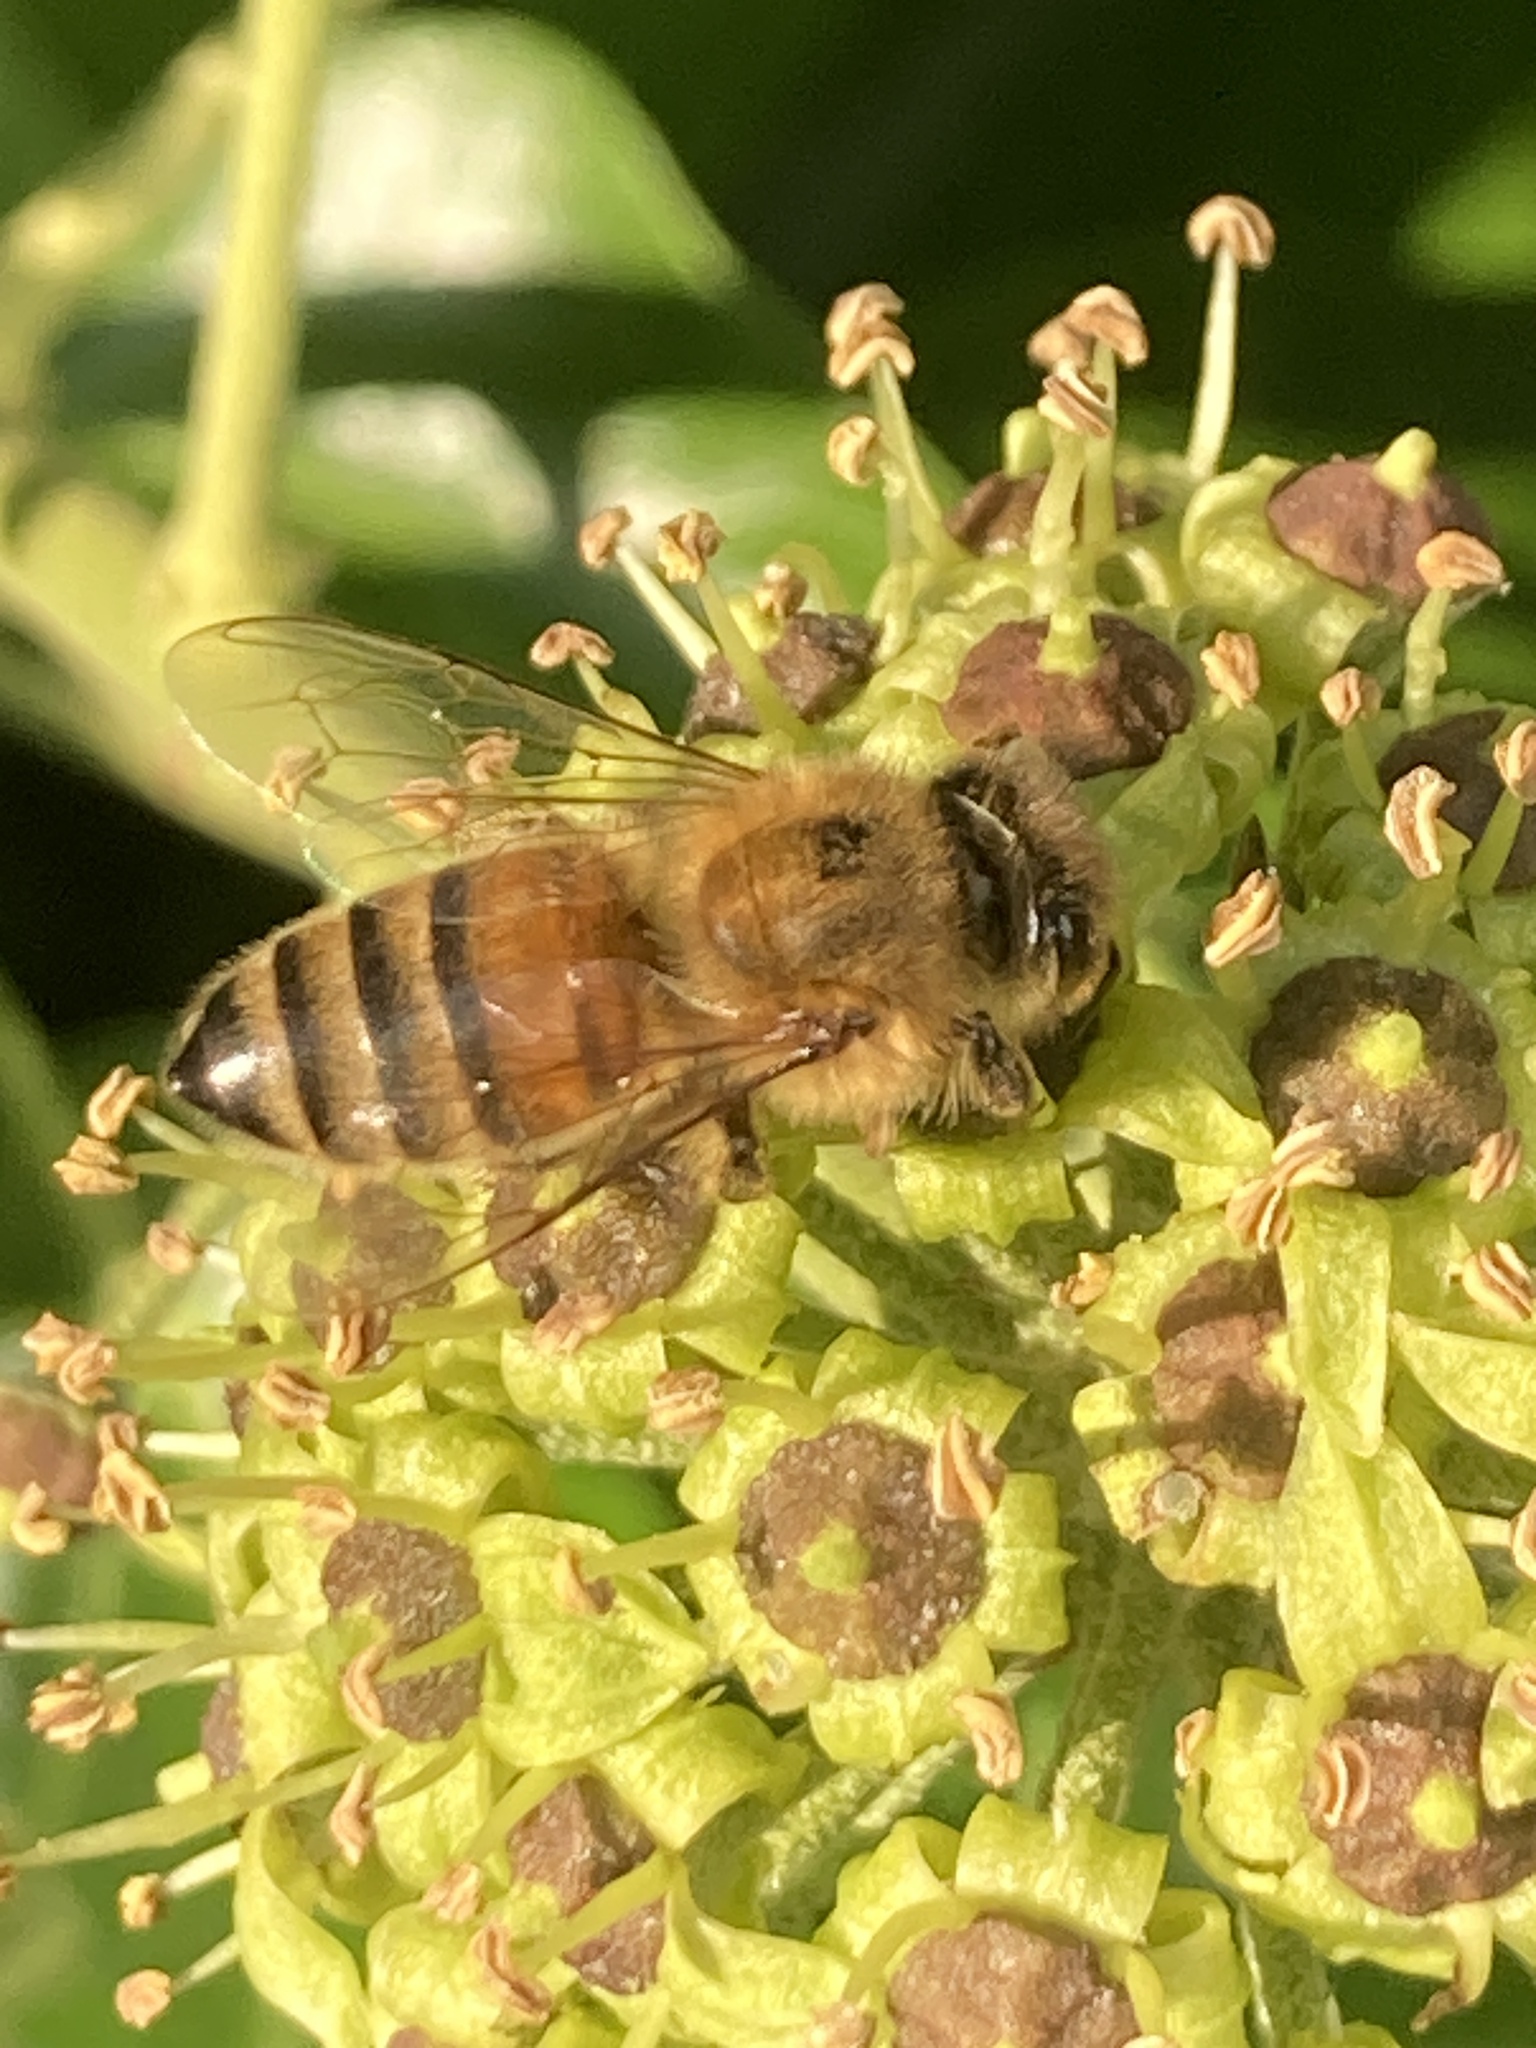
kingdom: Animalia
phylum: Arthropoda
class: Insecta
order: Hymenoptera
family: Apidae
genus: Apis
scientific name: Apis mellifera
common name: Honey bee
